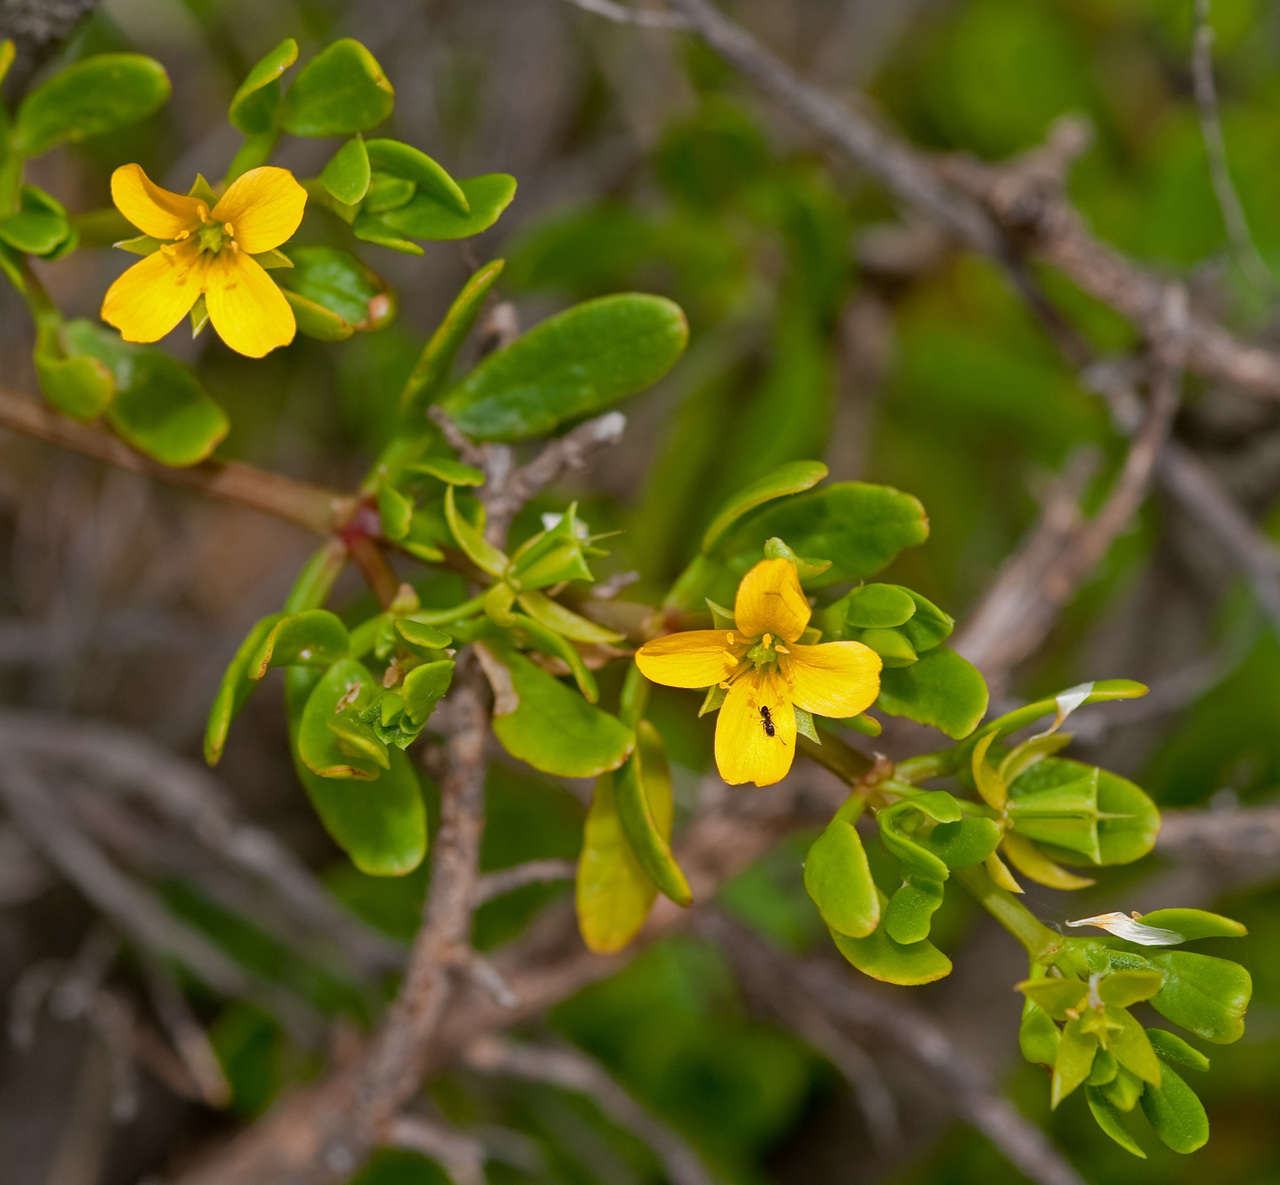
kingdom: Plantae
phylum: Tracheophyta
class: Magnoliopsida
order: Zygophyllales
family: Zygophyllaceae
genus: Roepera
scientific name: Roepera billardieri
